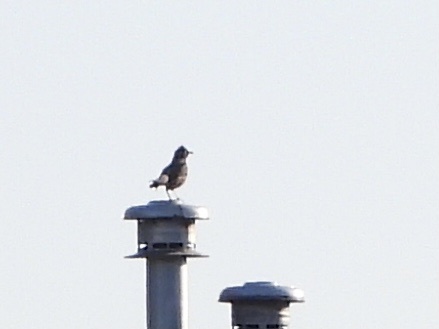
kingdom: Animalia
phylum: Chordata
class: Aves
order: Passeriformes
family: Turdidae
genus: Turdus
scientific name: Turdus migratorius
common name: American robin
